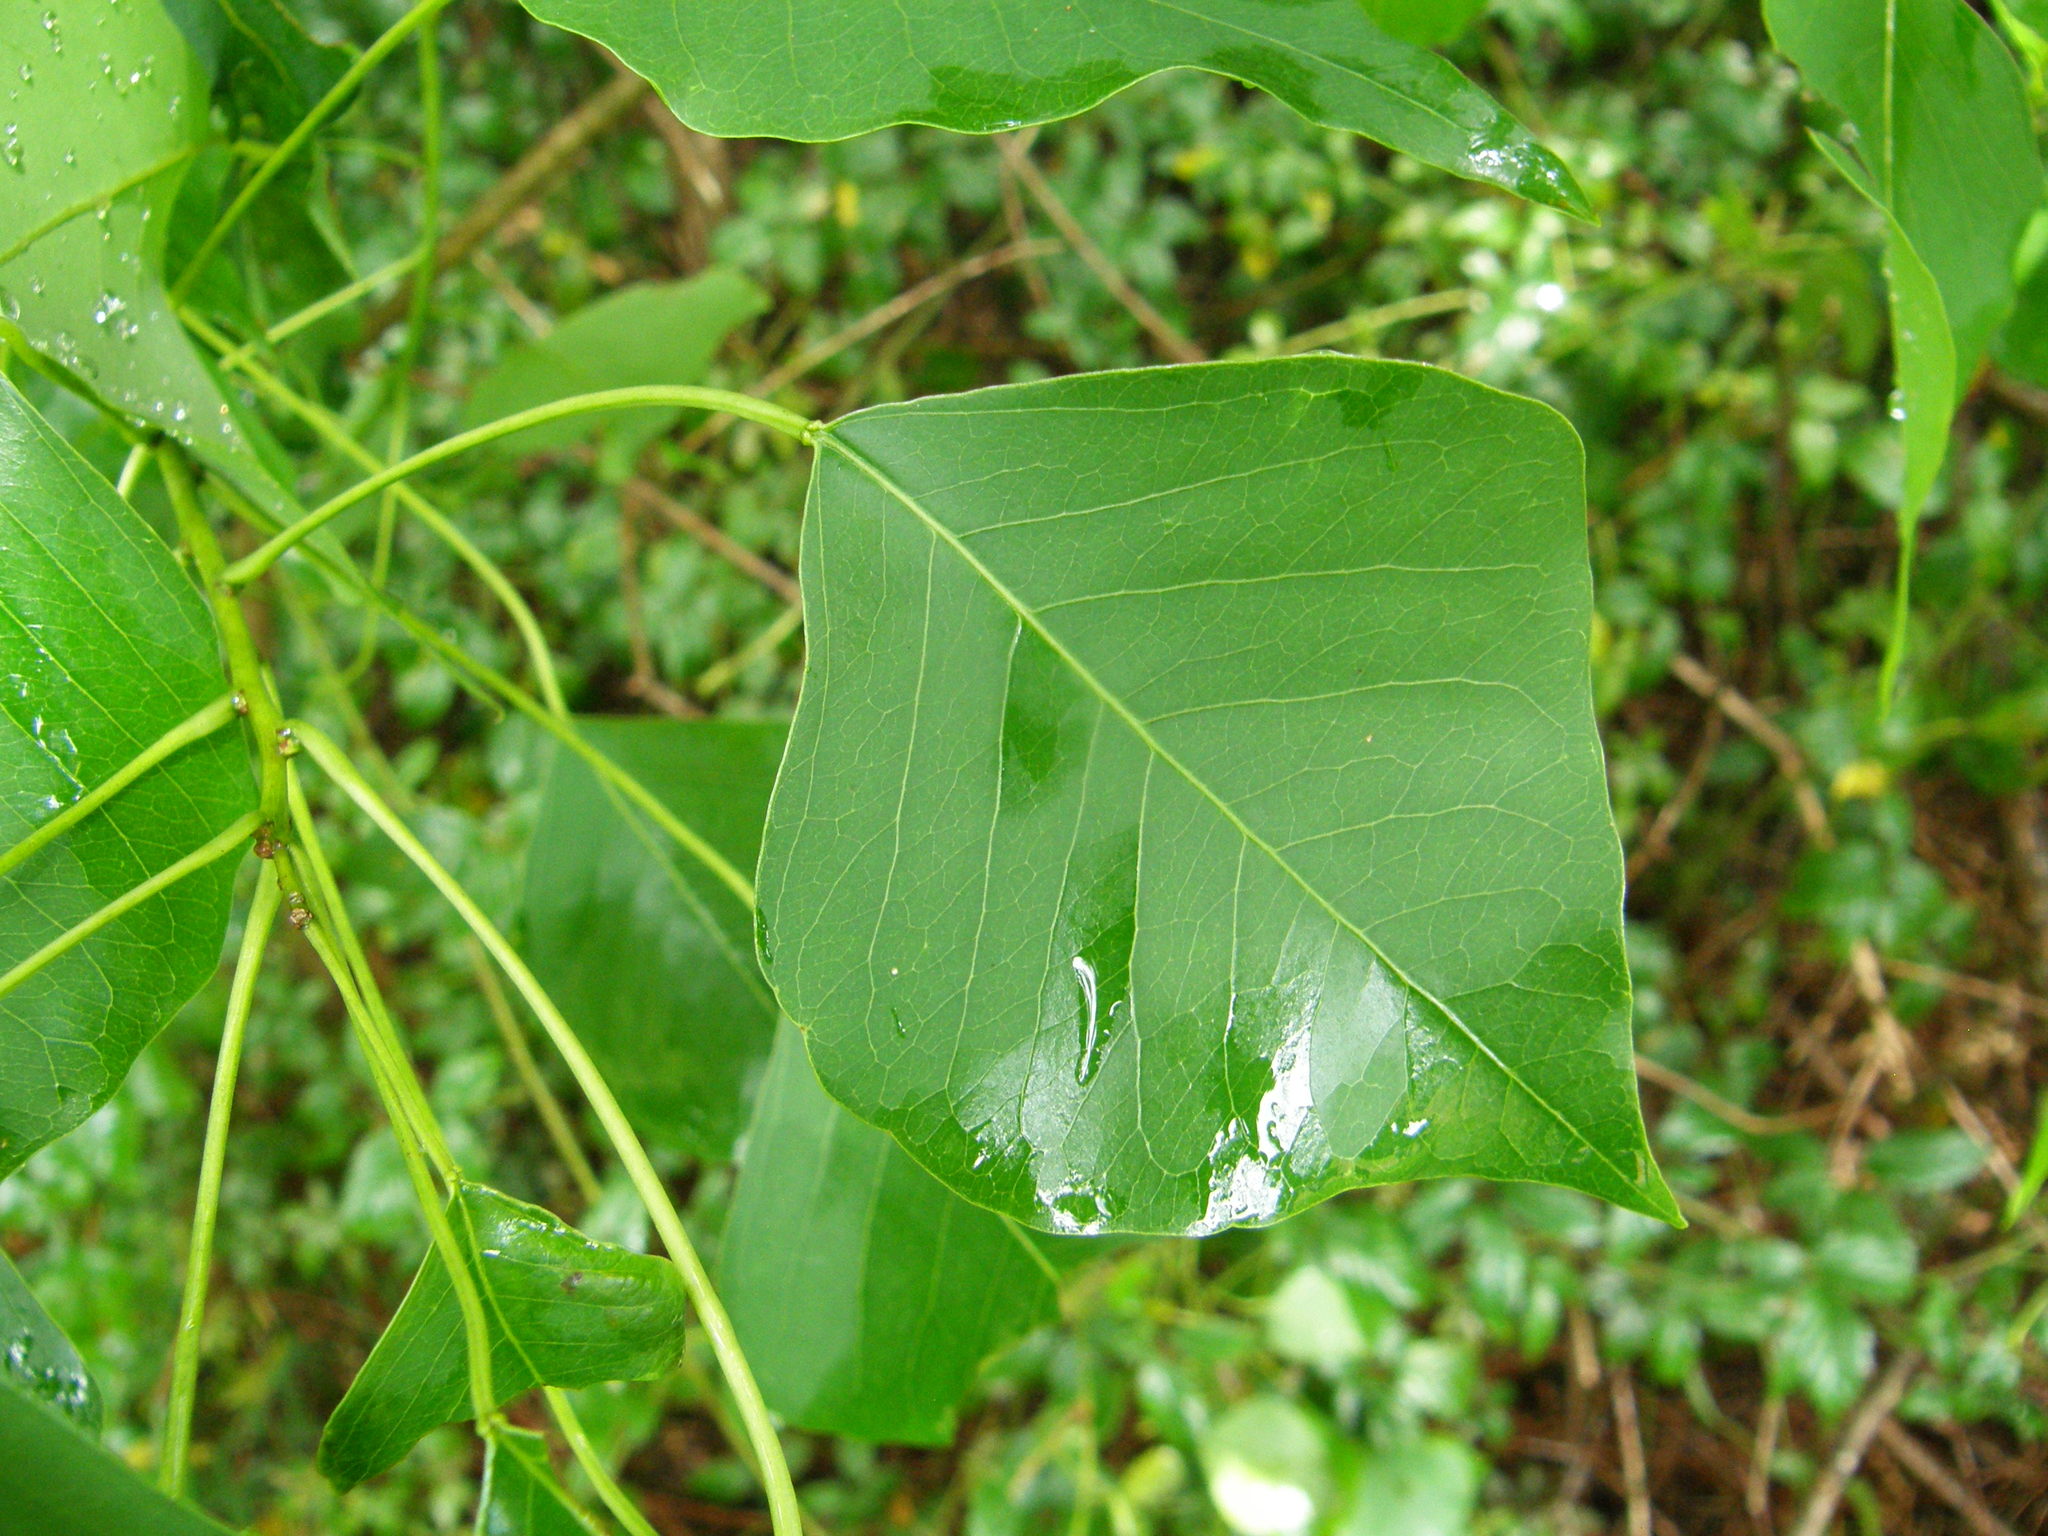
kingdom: Plantae
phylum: Tracheophyta
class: Magnoliopsida
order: Malpighiales
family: Euphorbiaceae
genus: Triadica
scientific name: Triadica sebifera
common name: Chinese tallow
